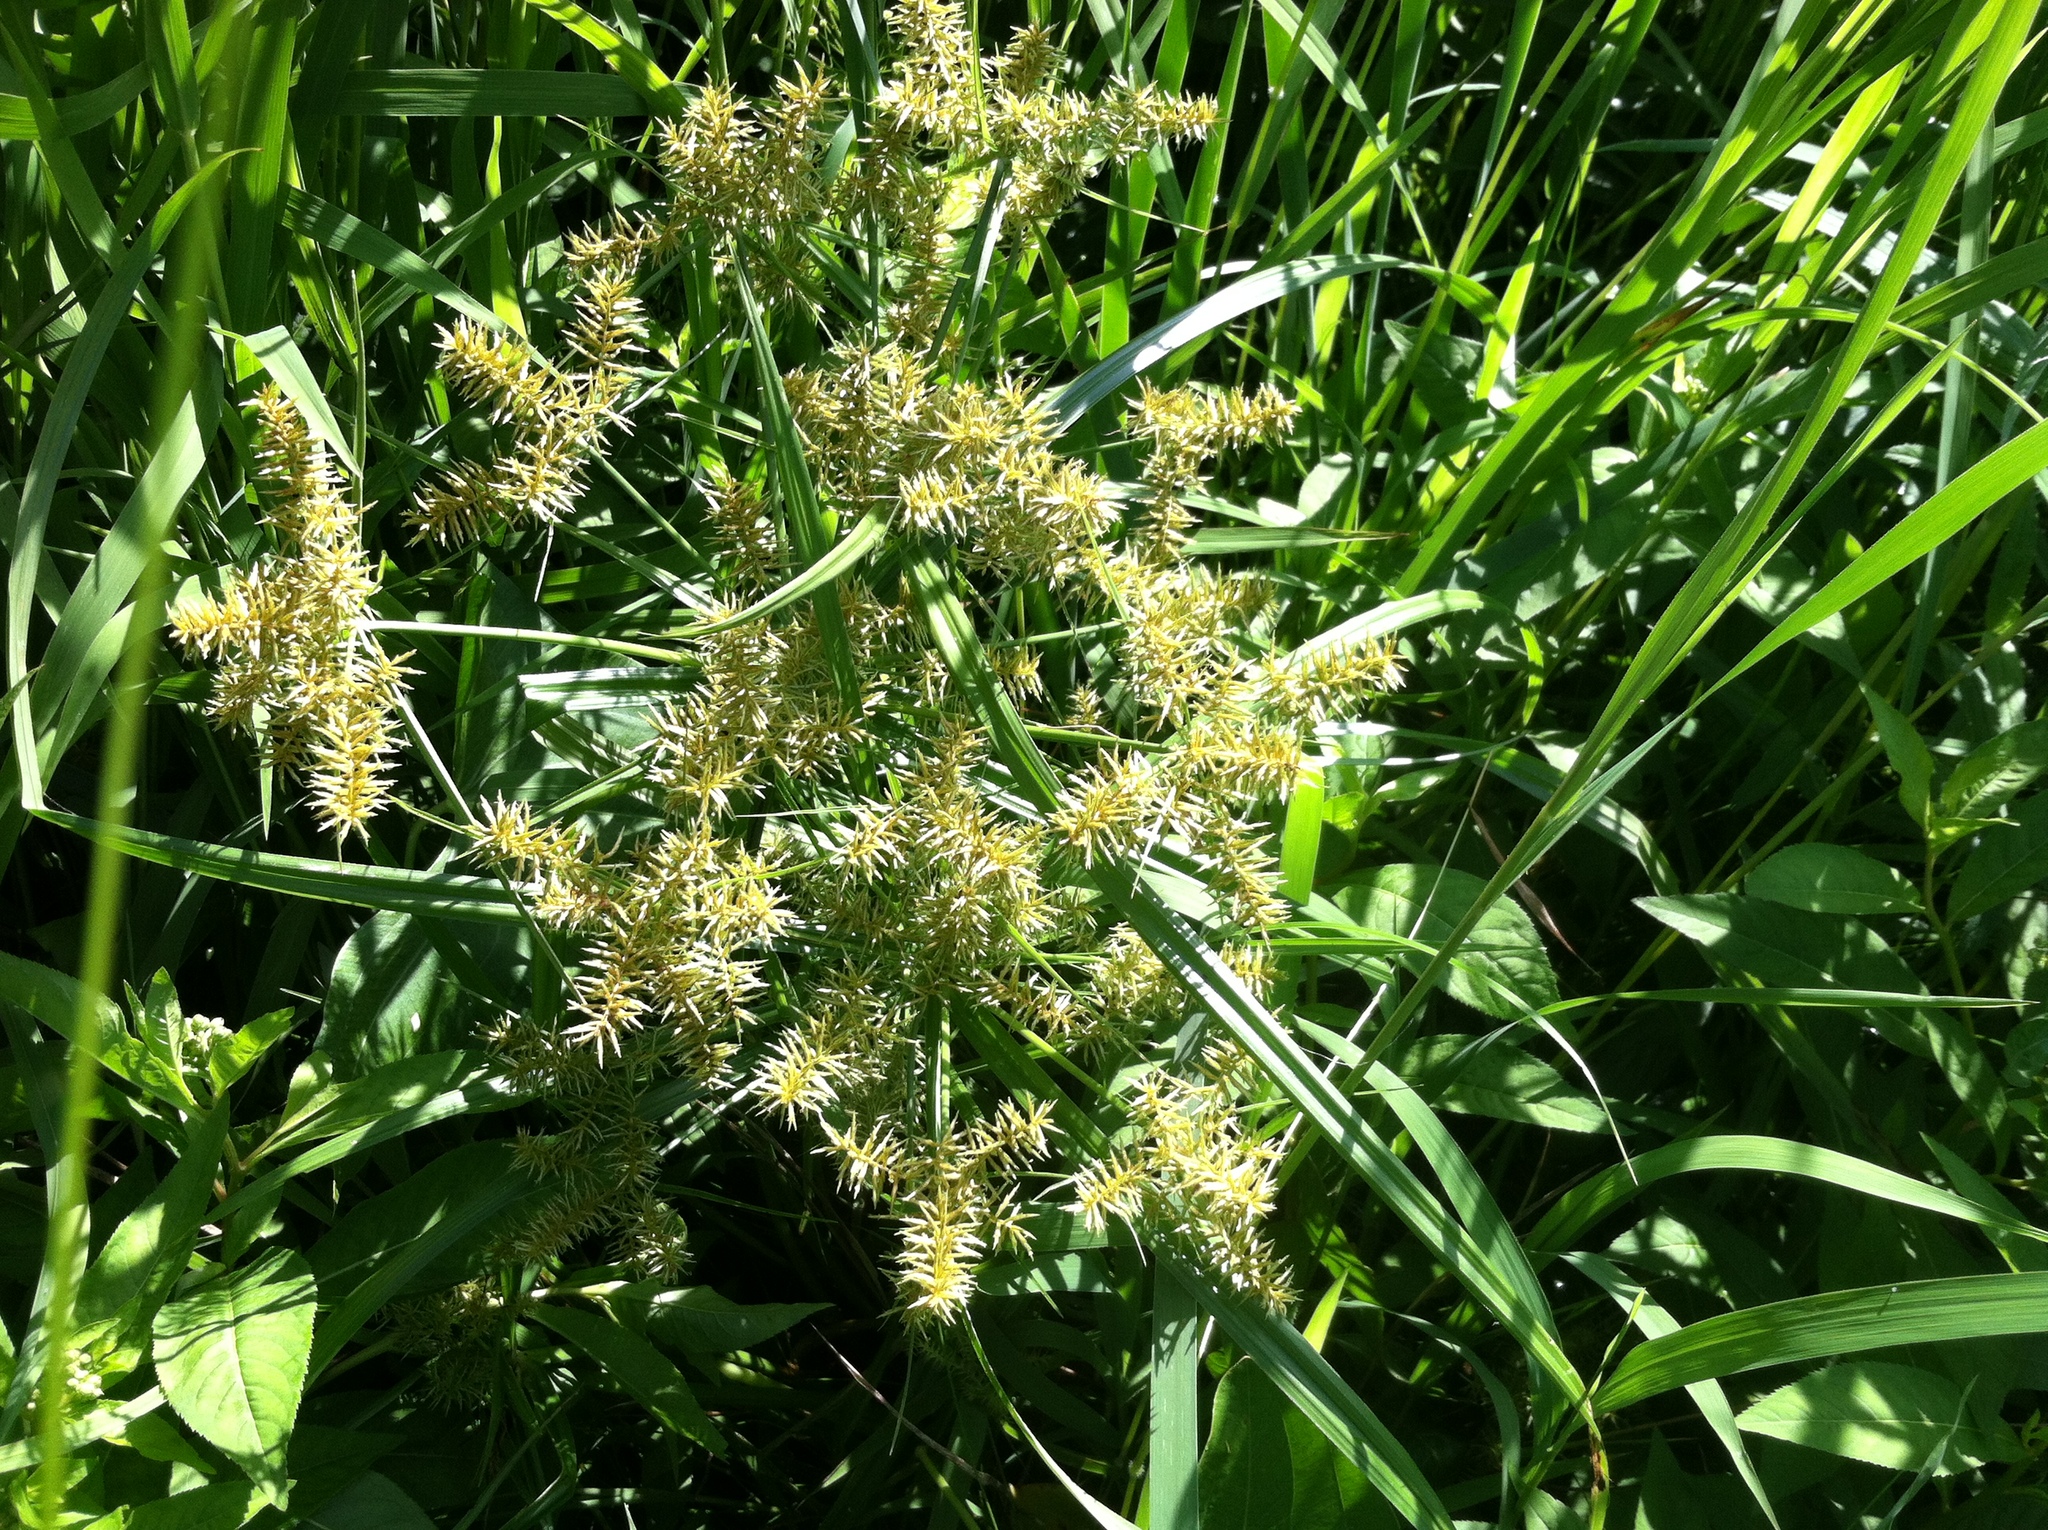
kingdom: Plantae
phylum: Tracheophyta
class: Liliopsida
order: Poales
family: Cyperaceae
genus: Cyperus
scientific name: Cyperus strigosus
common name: False nutsedge
